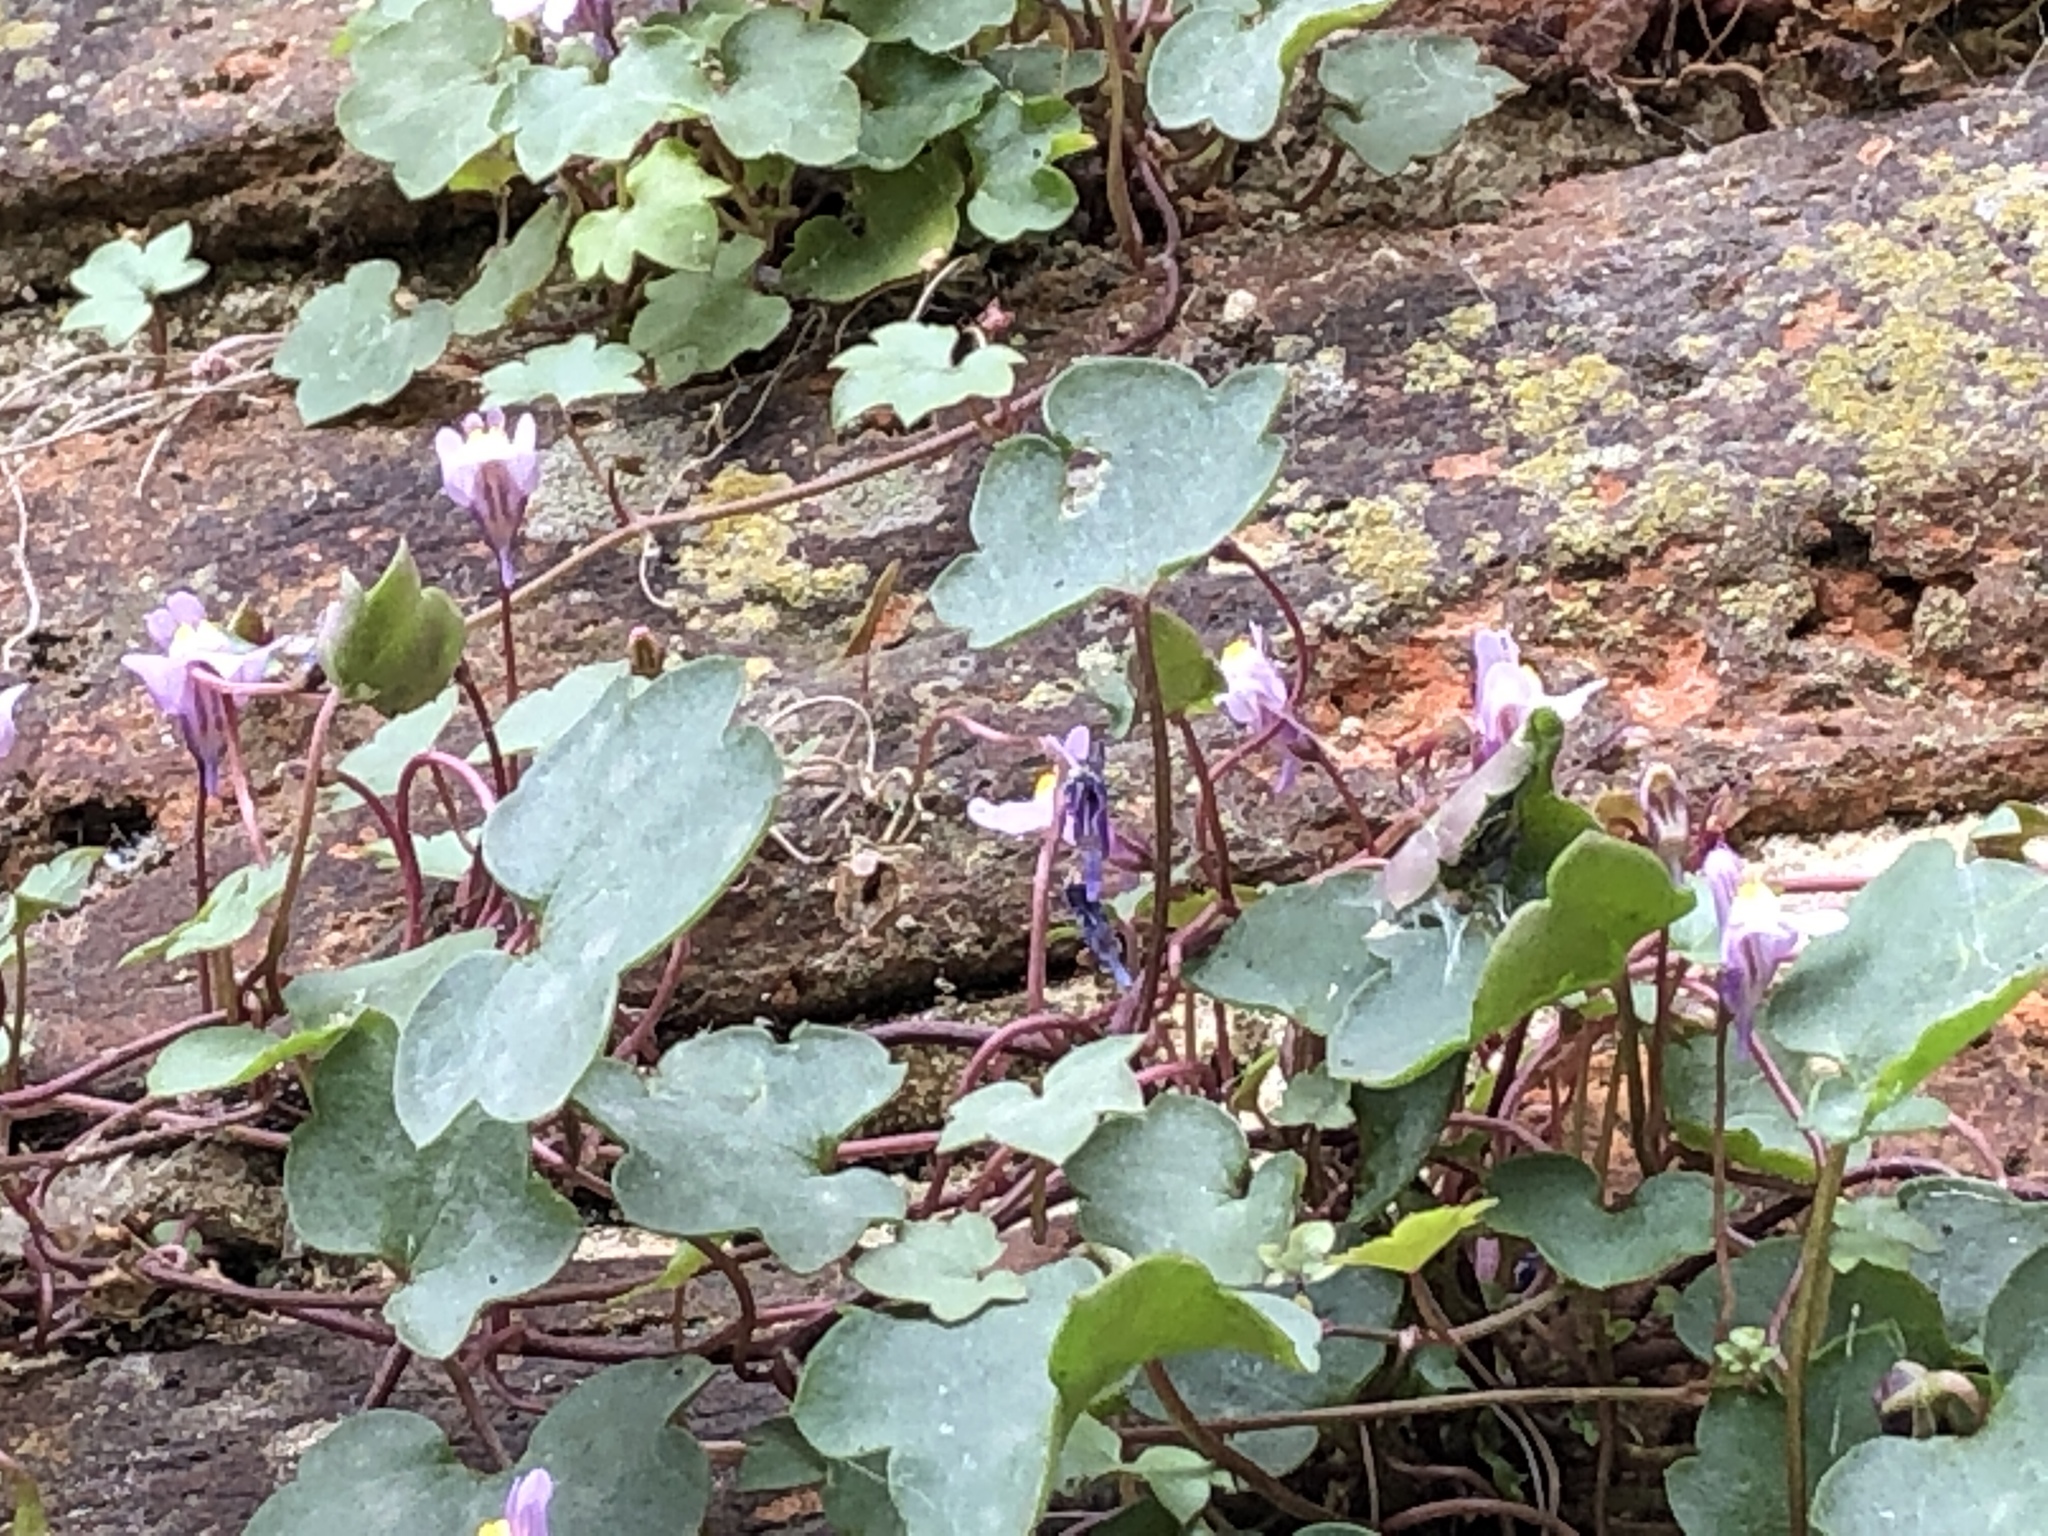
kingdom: Plantae
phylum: Tracheophyta
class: Magnoliopsida
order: Lamiales
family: Plantaginaceae
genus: Cymbalaria
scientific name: Cymbalaria muralis
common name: Ivy-leaved toadflax
